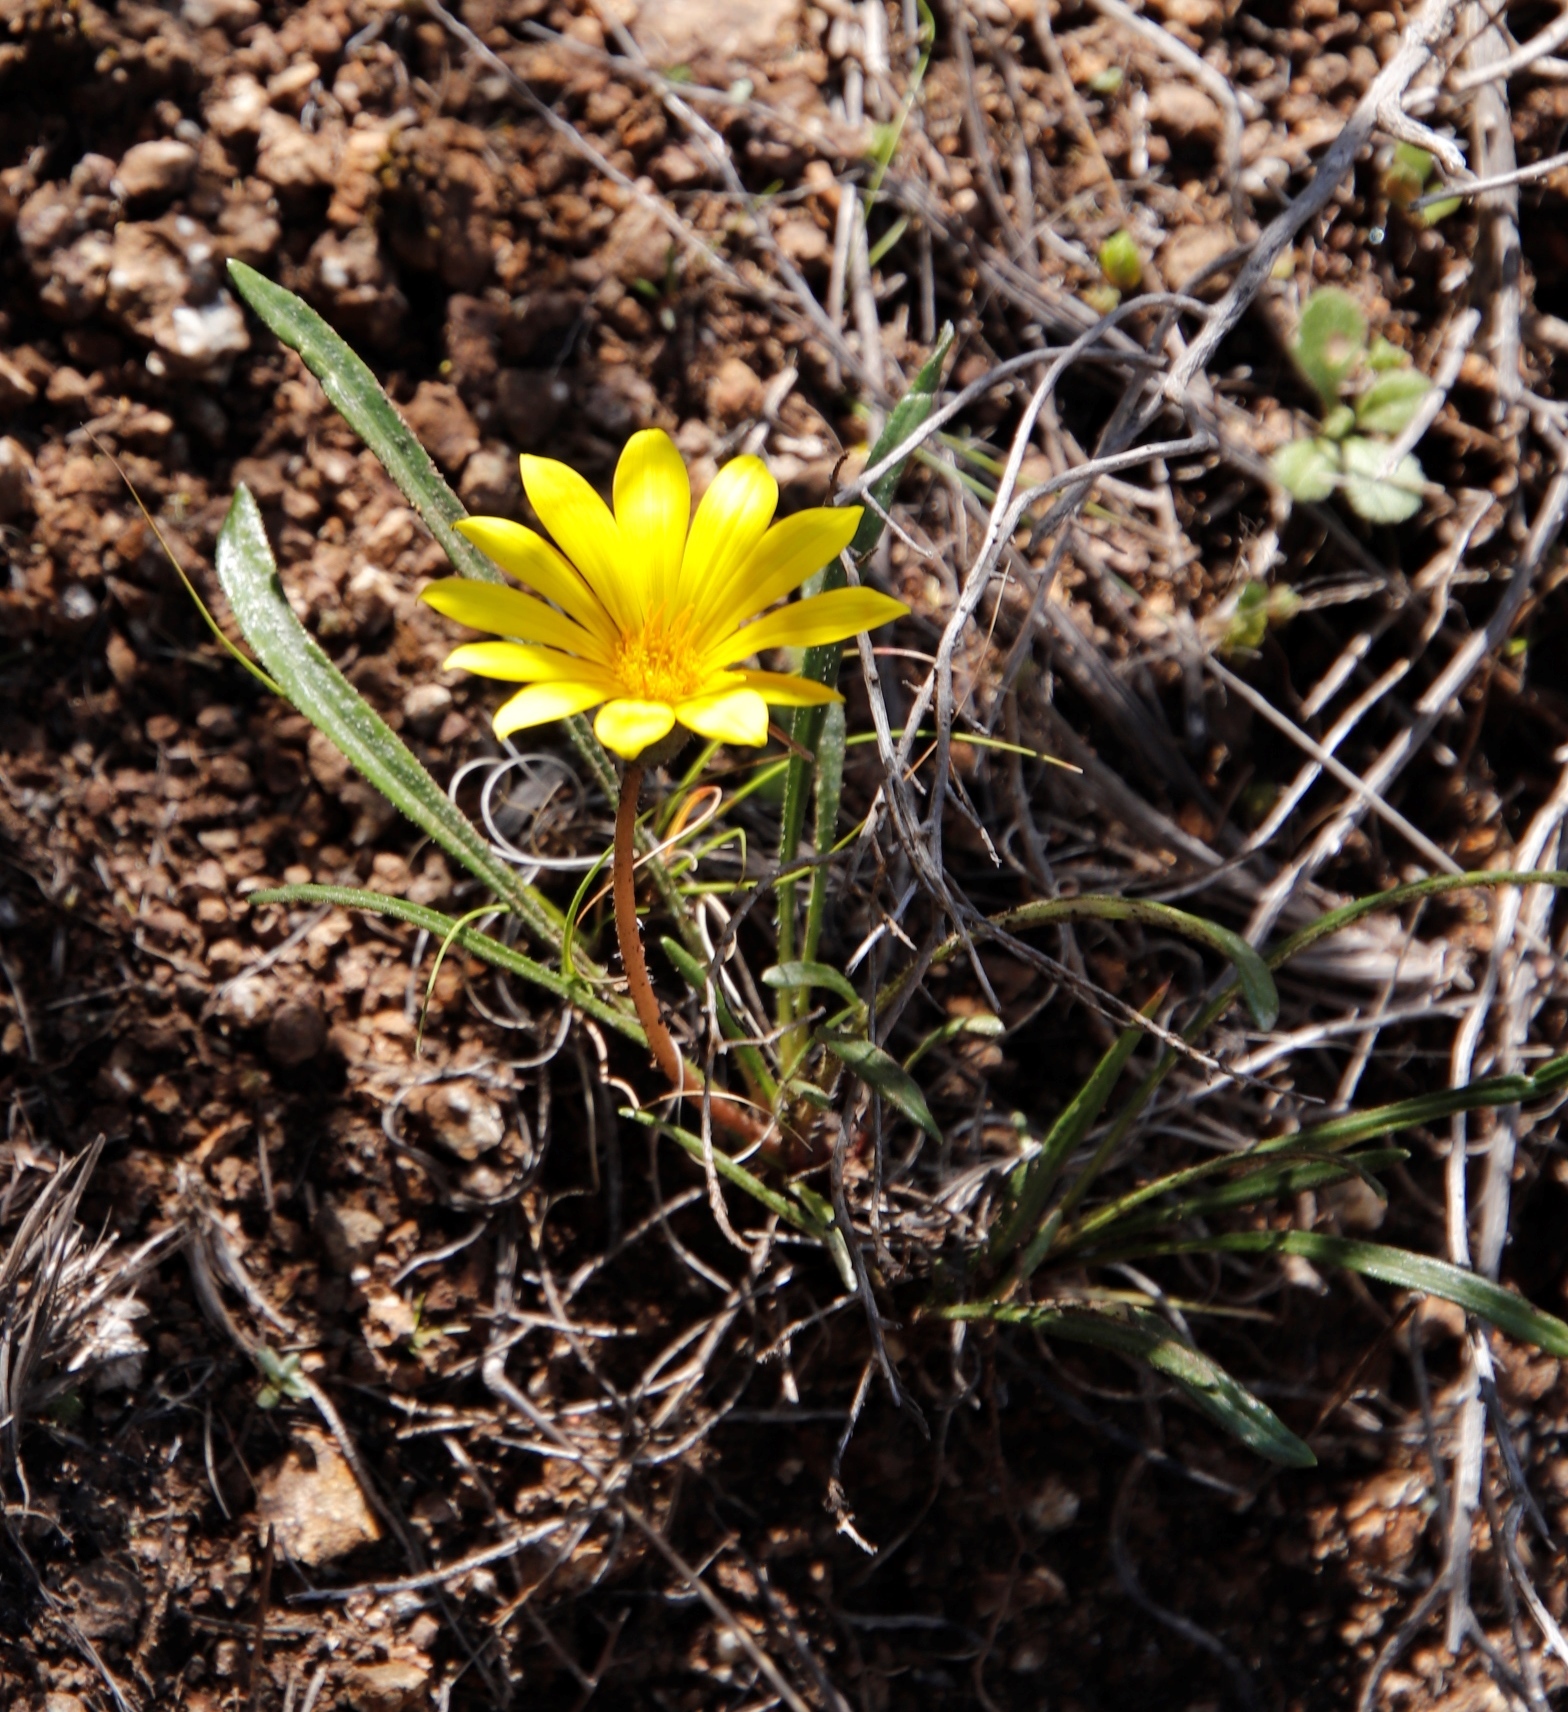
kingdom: Plantae
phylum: Tracheophyta
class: Magnoliopsida
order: Asterales
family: Asteraceae
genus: Gazania
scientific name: Gazania krebsiana
